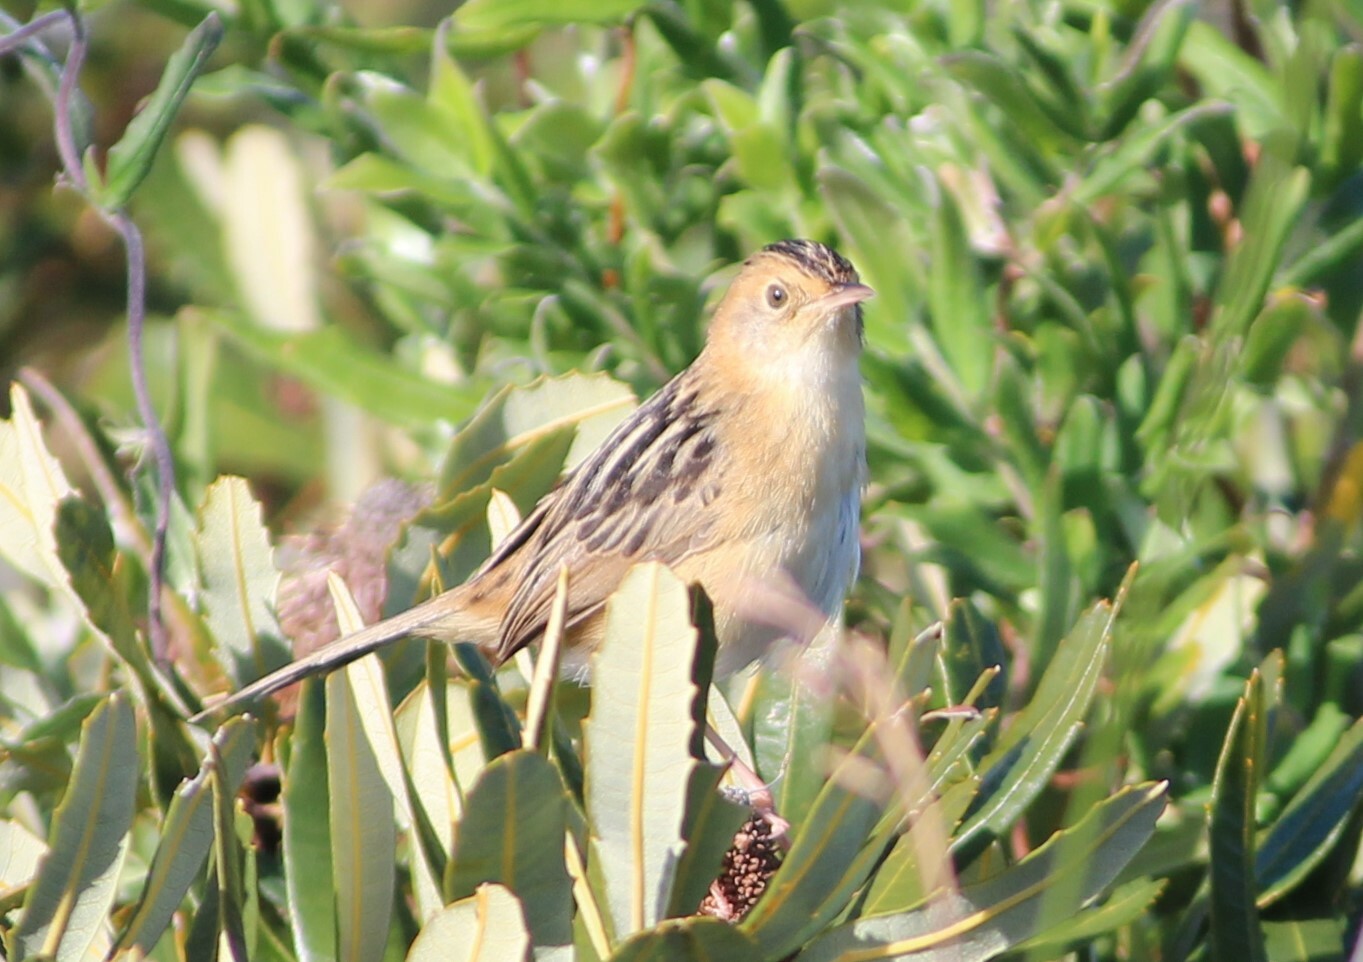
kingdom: Animalia
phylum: Chordata
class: Aves
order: Passeriformes
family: Cisticolidae
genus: Cisticola
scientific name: Cisticola exilis
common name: Golden-headed cisticola
